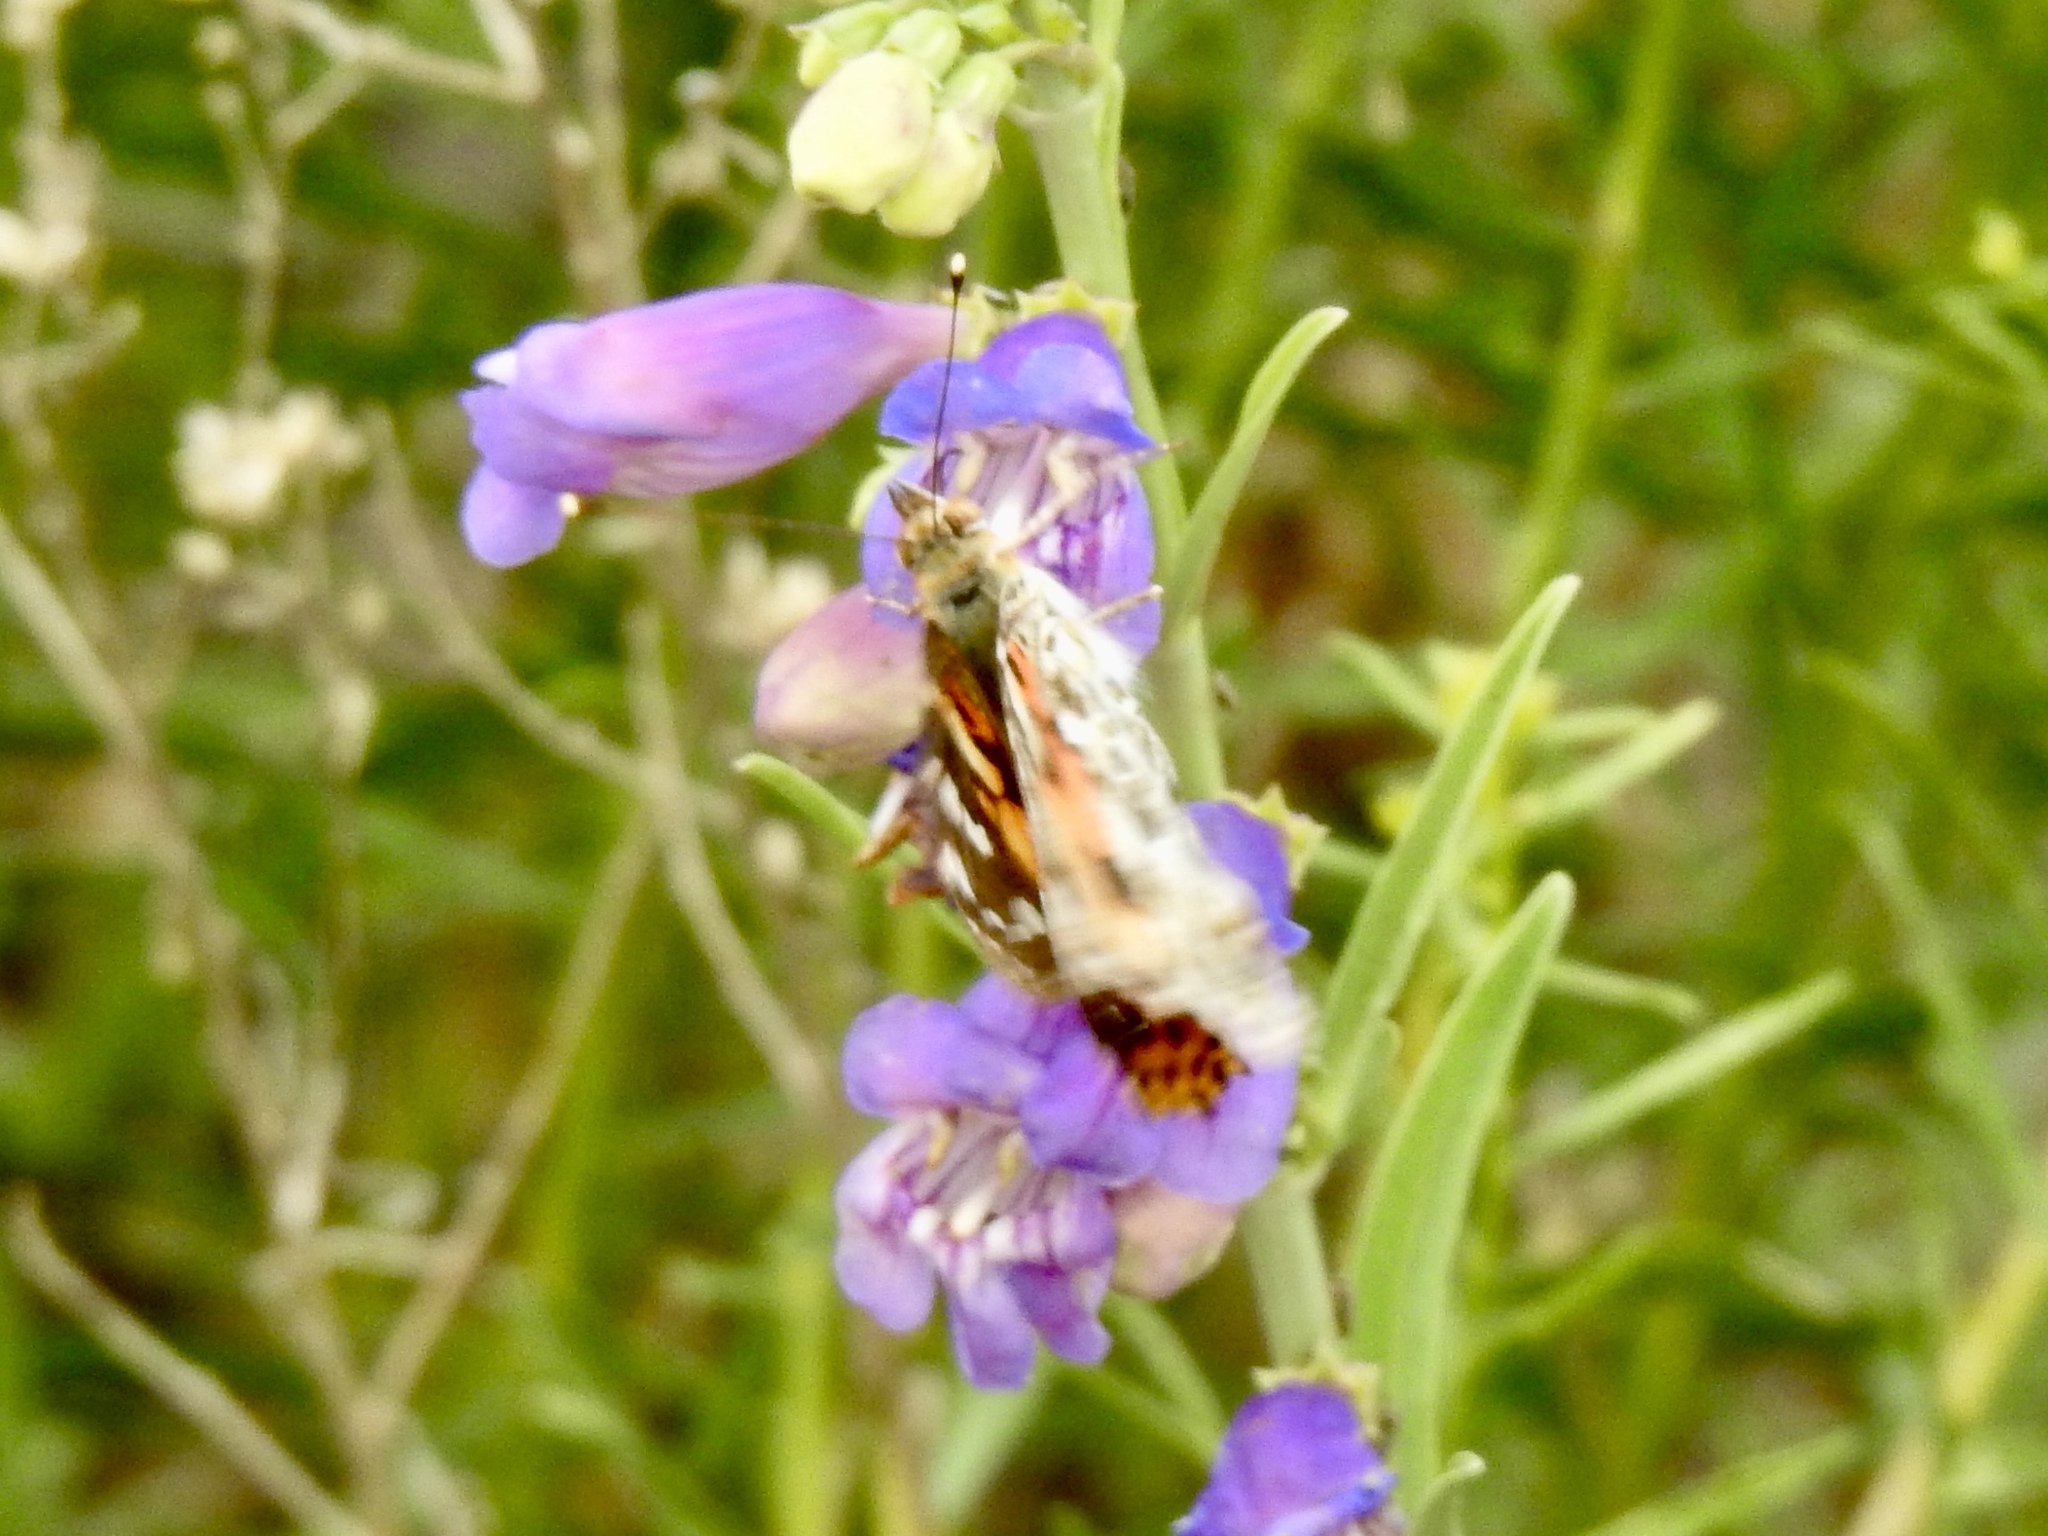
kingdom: Animalia
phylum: Arthropoda
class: Insecta
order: Lepidoptera
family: Nymphalidae
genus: Vanessa
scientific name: Vanessa cardui
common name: Painted lady
